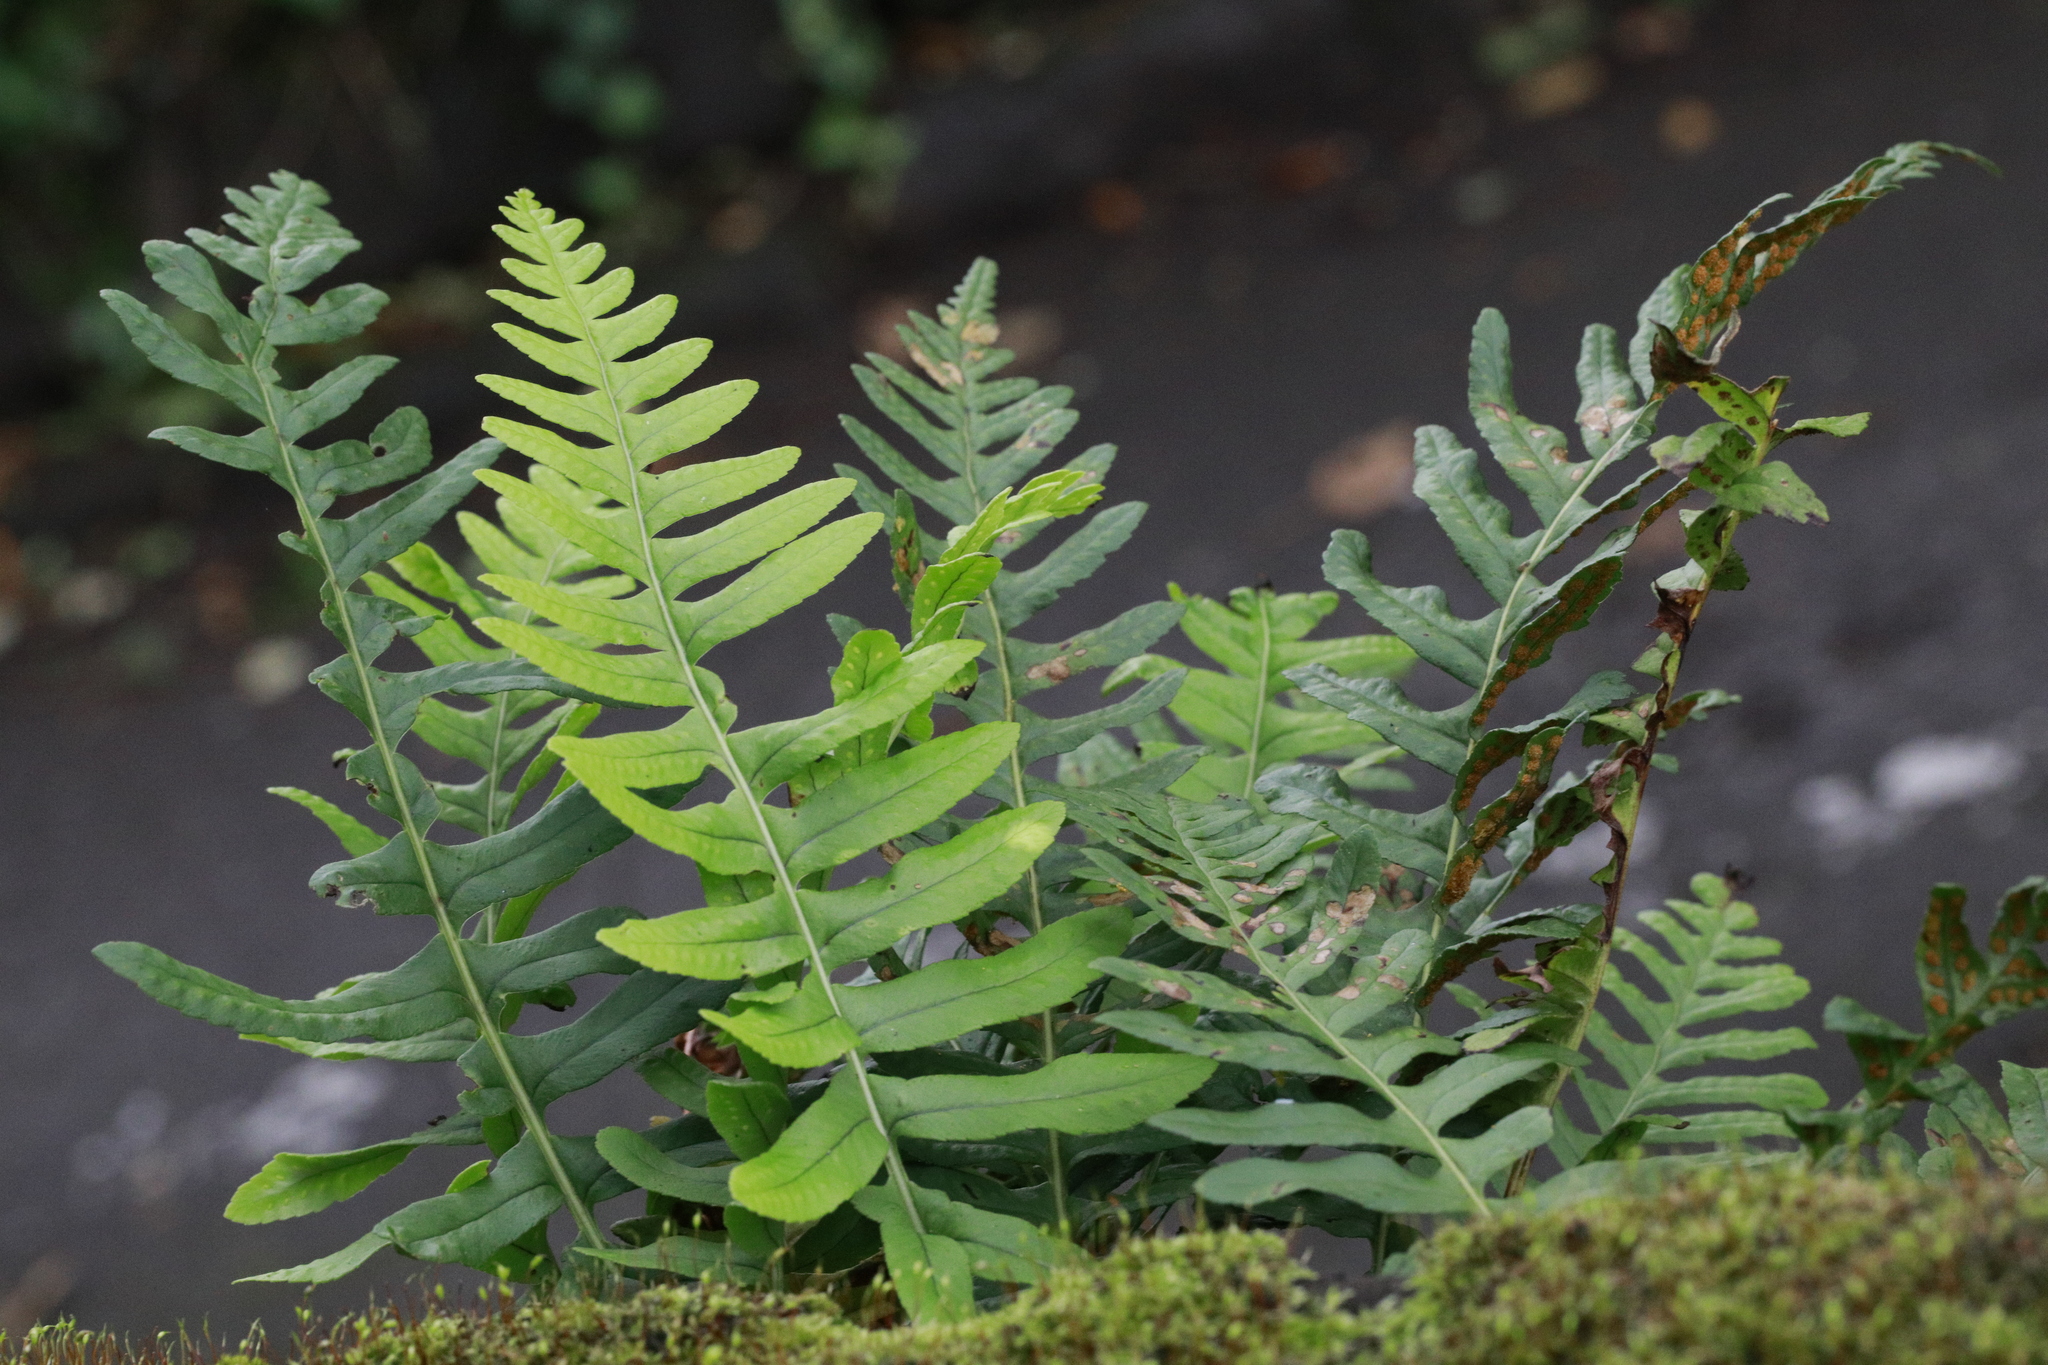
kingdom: Plantae
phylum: Tracheophyta
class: Polypodiopsida
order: Polypodiales
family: Polypodiaceae
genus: Polypodium
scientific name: Polypodium vulgare
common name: Common polypody
